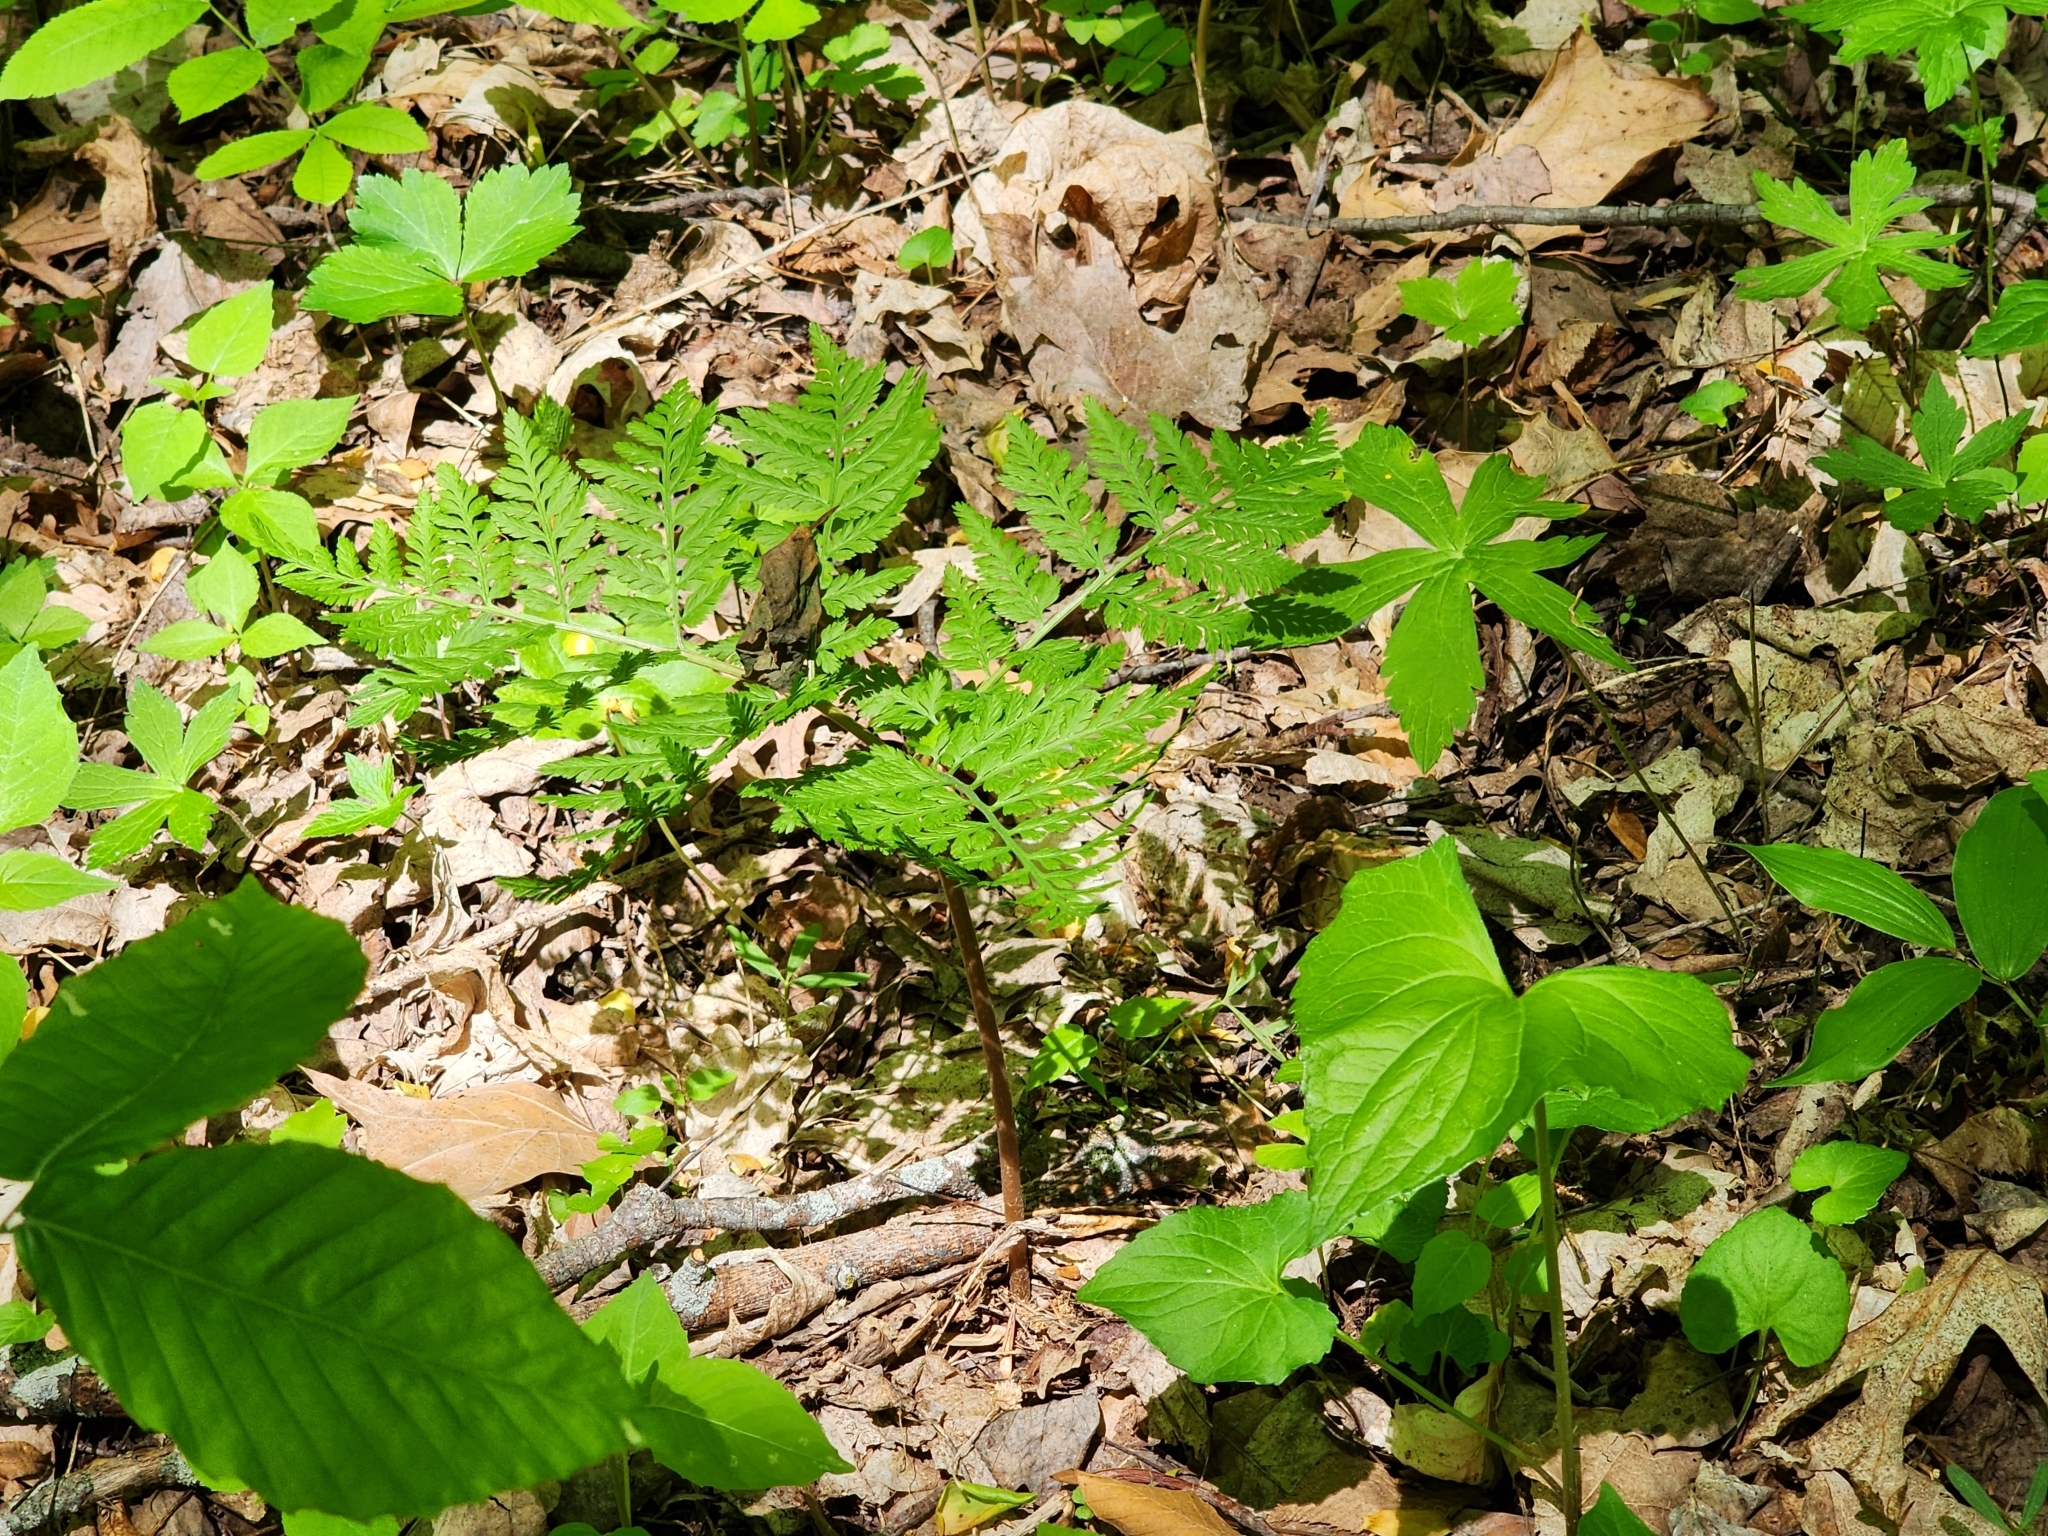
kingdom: Plantae
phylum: Tracheophyta
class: Polypodiopsida
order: Ophioglossales
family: Ophioglossaceae
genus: Botrypus
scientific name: Botrypus virginianus
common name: Common grapefern
